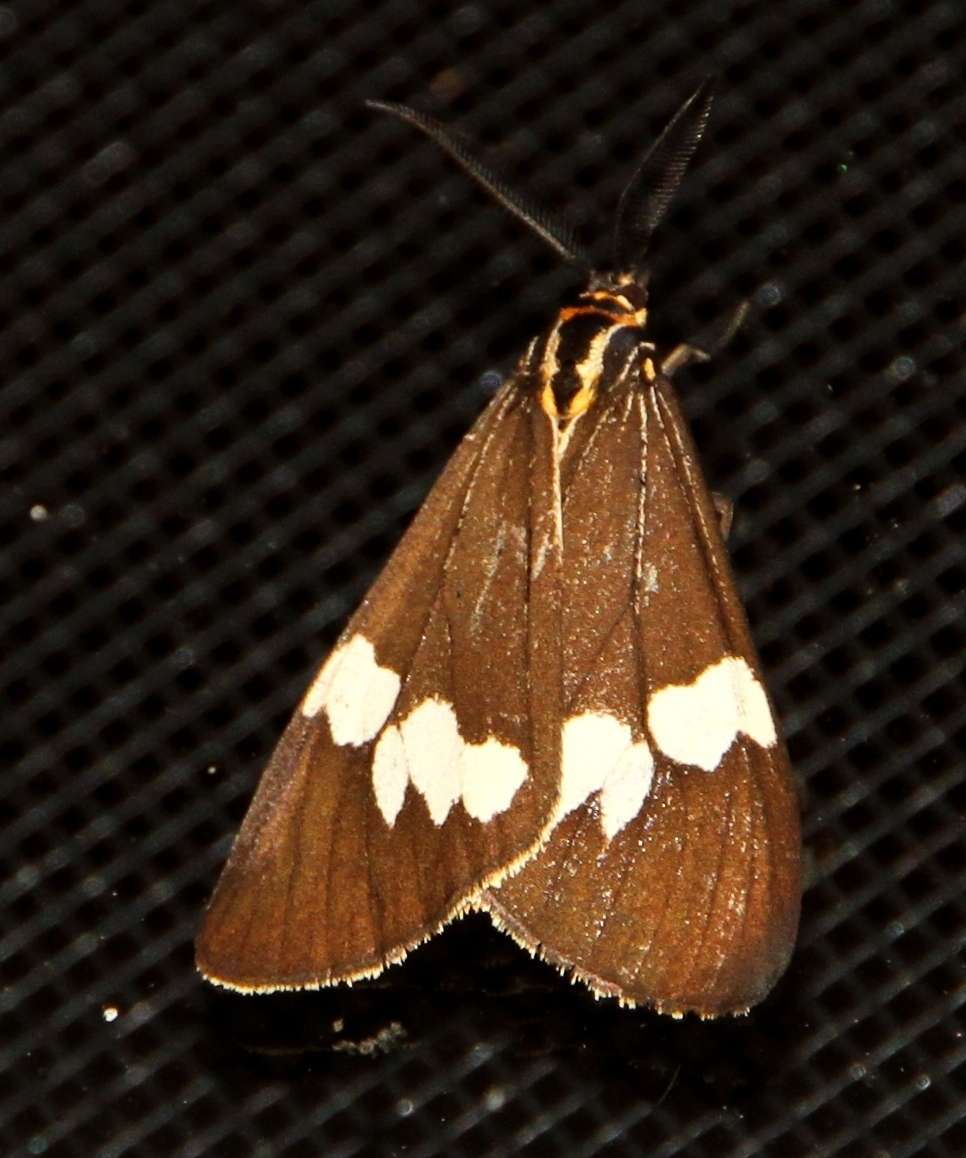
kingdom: Animalia
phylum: Arthropoda
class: Insecta
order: Lepidoptera
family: Erebidae
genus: Nyctemera
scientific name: Nyctemera amicus
